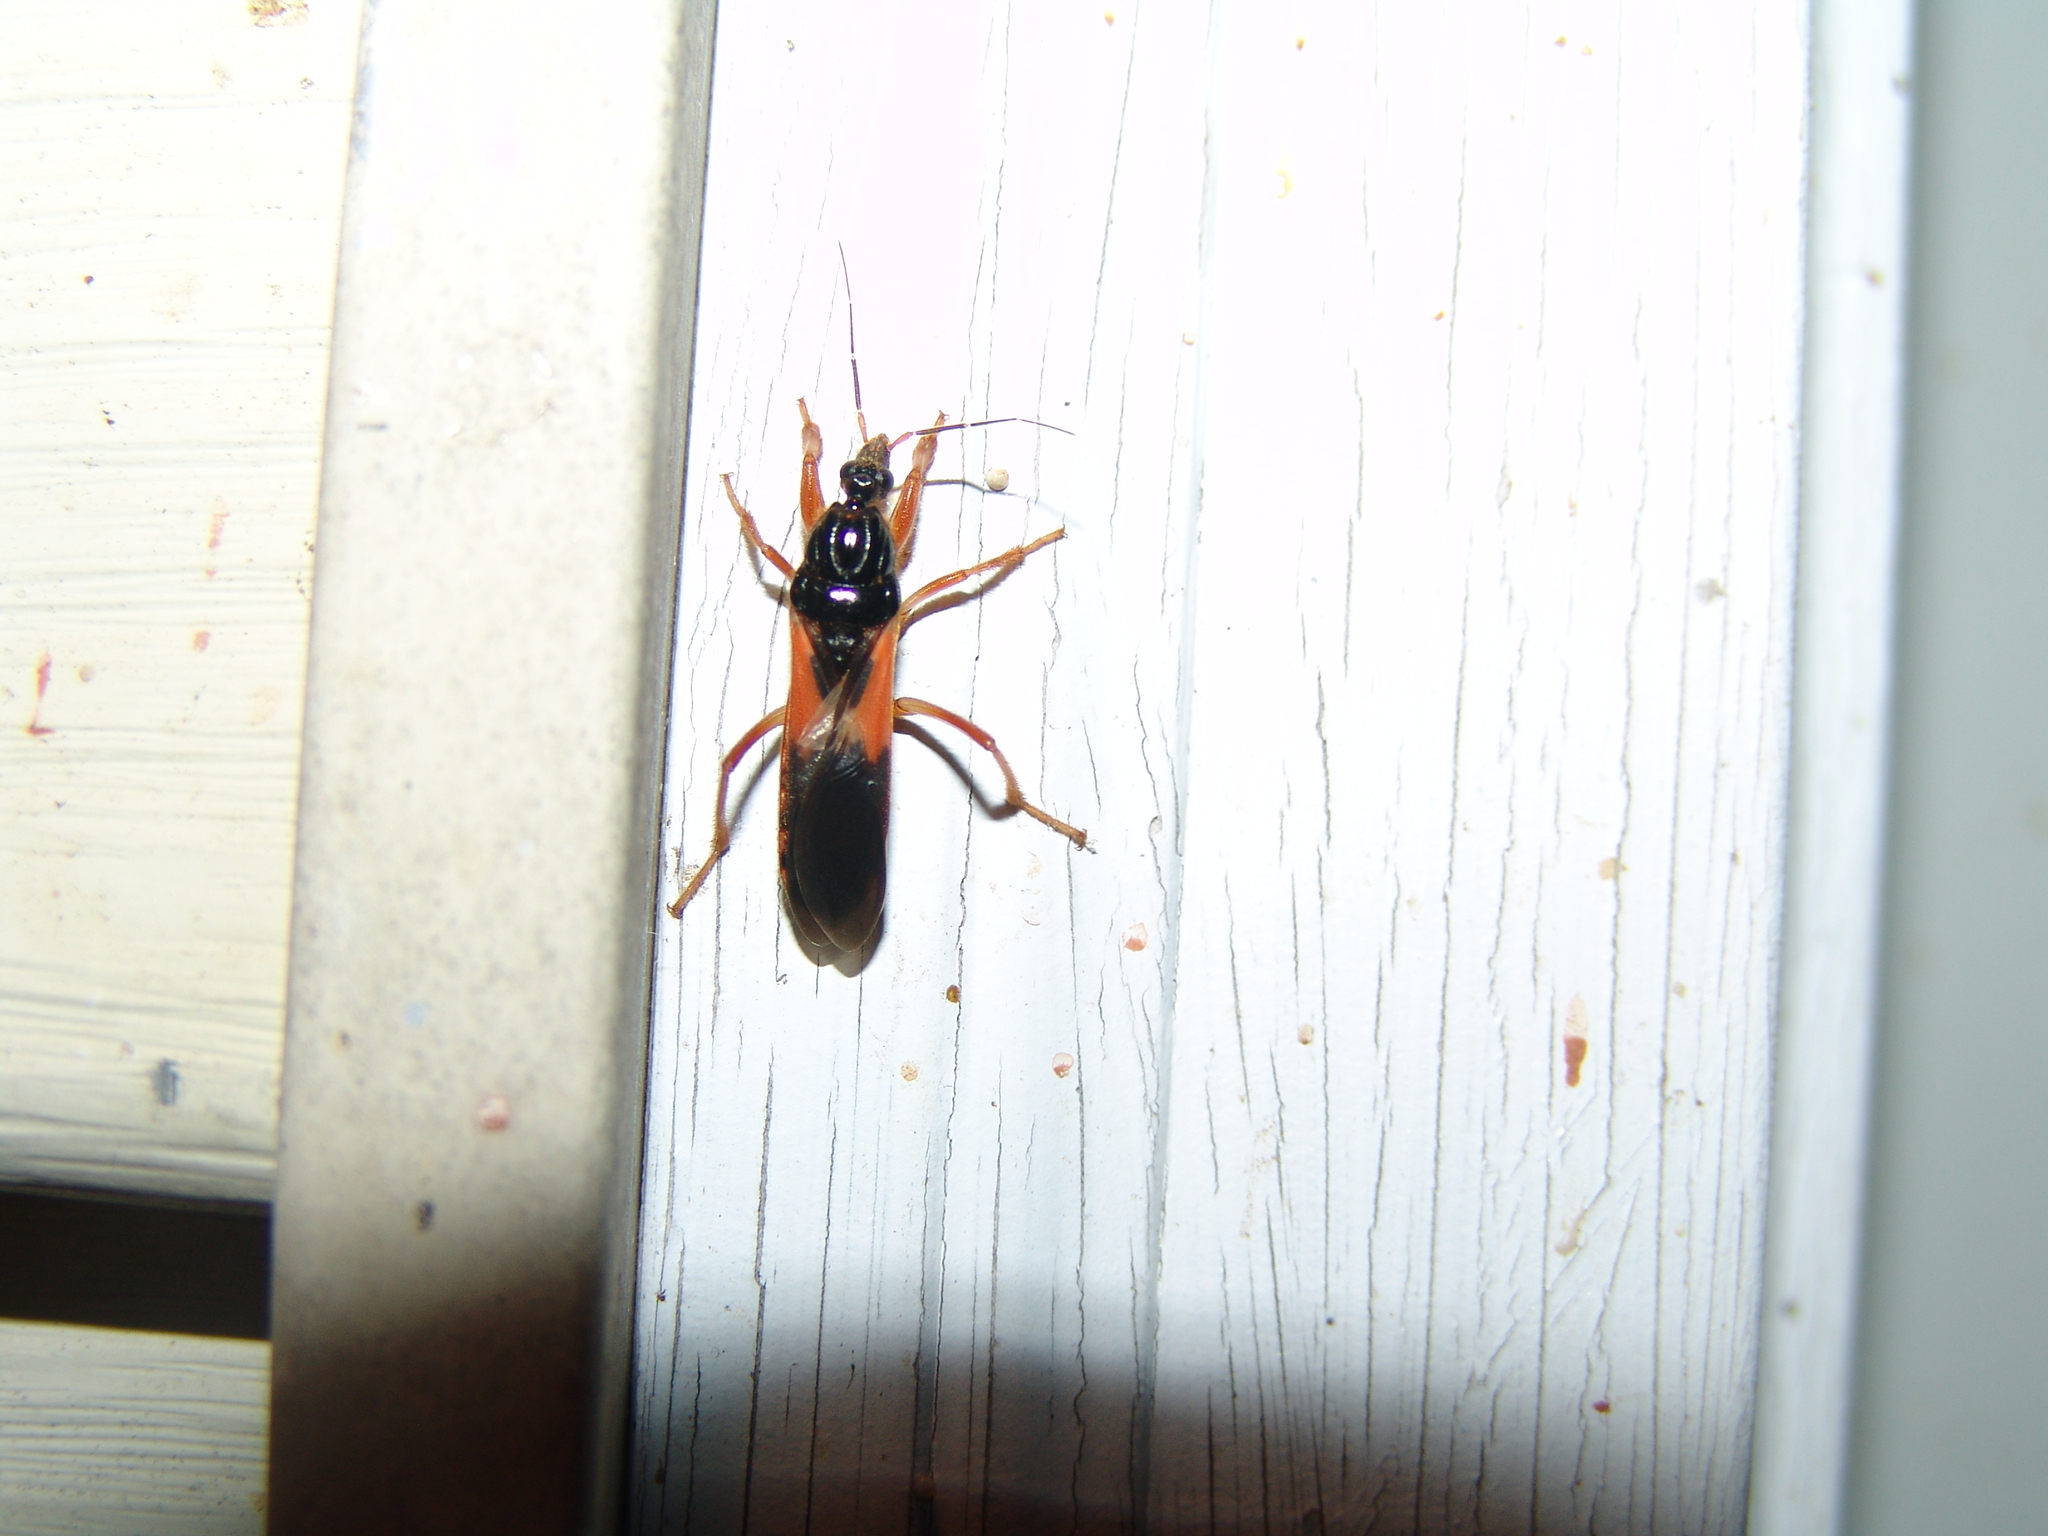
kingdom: Animalia
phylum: Arthropoda
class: Insecta
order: Hemiptera
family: Reduviidae
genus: Sirthenea
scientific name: Sirthenea stria
